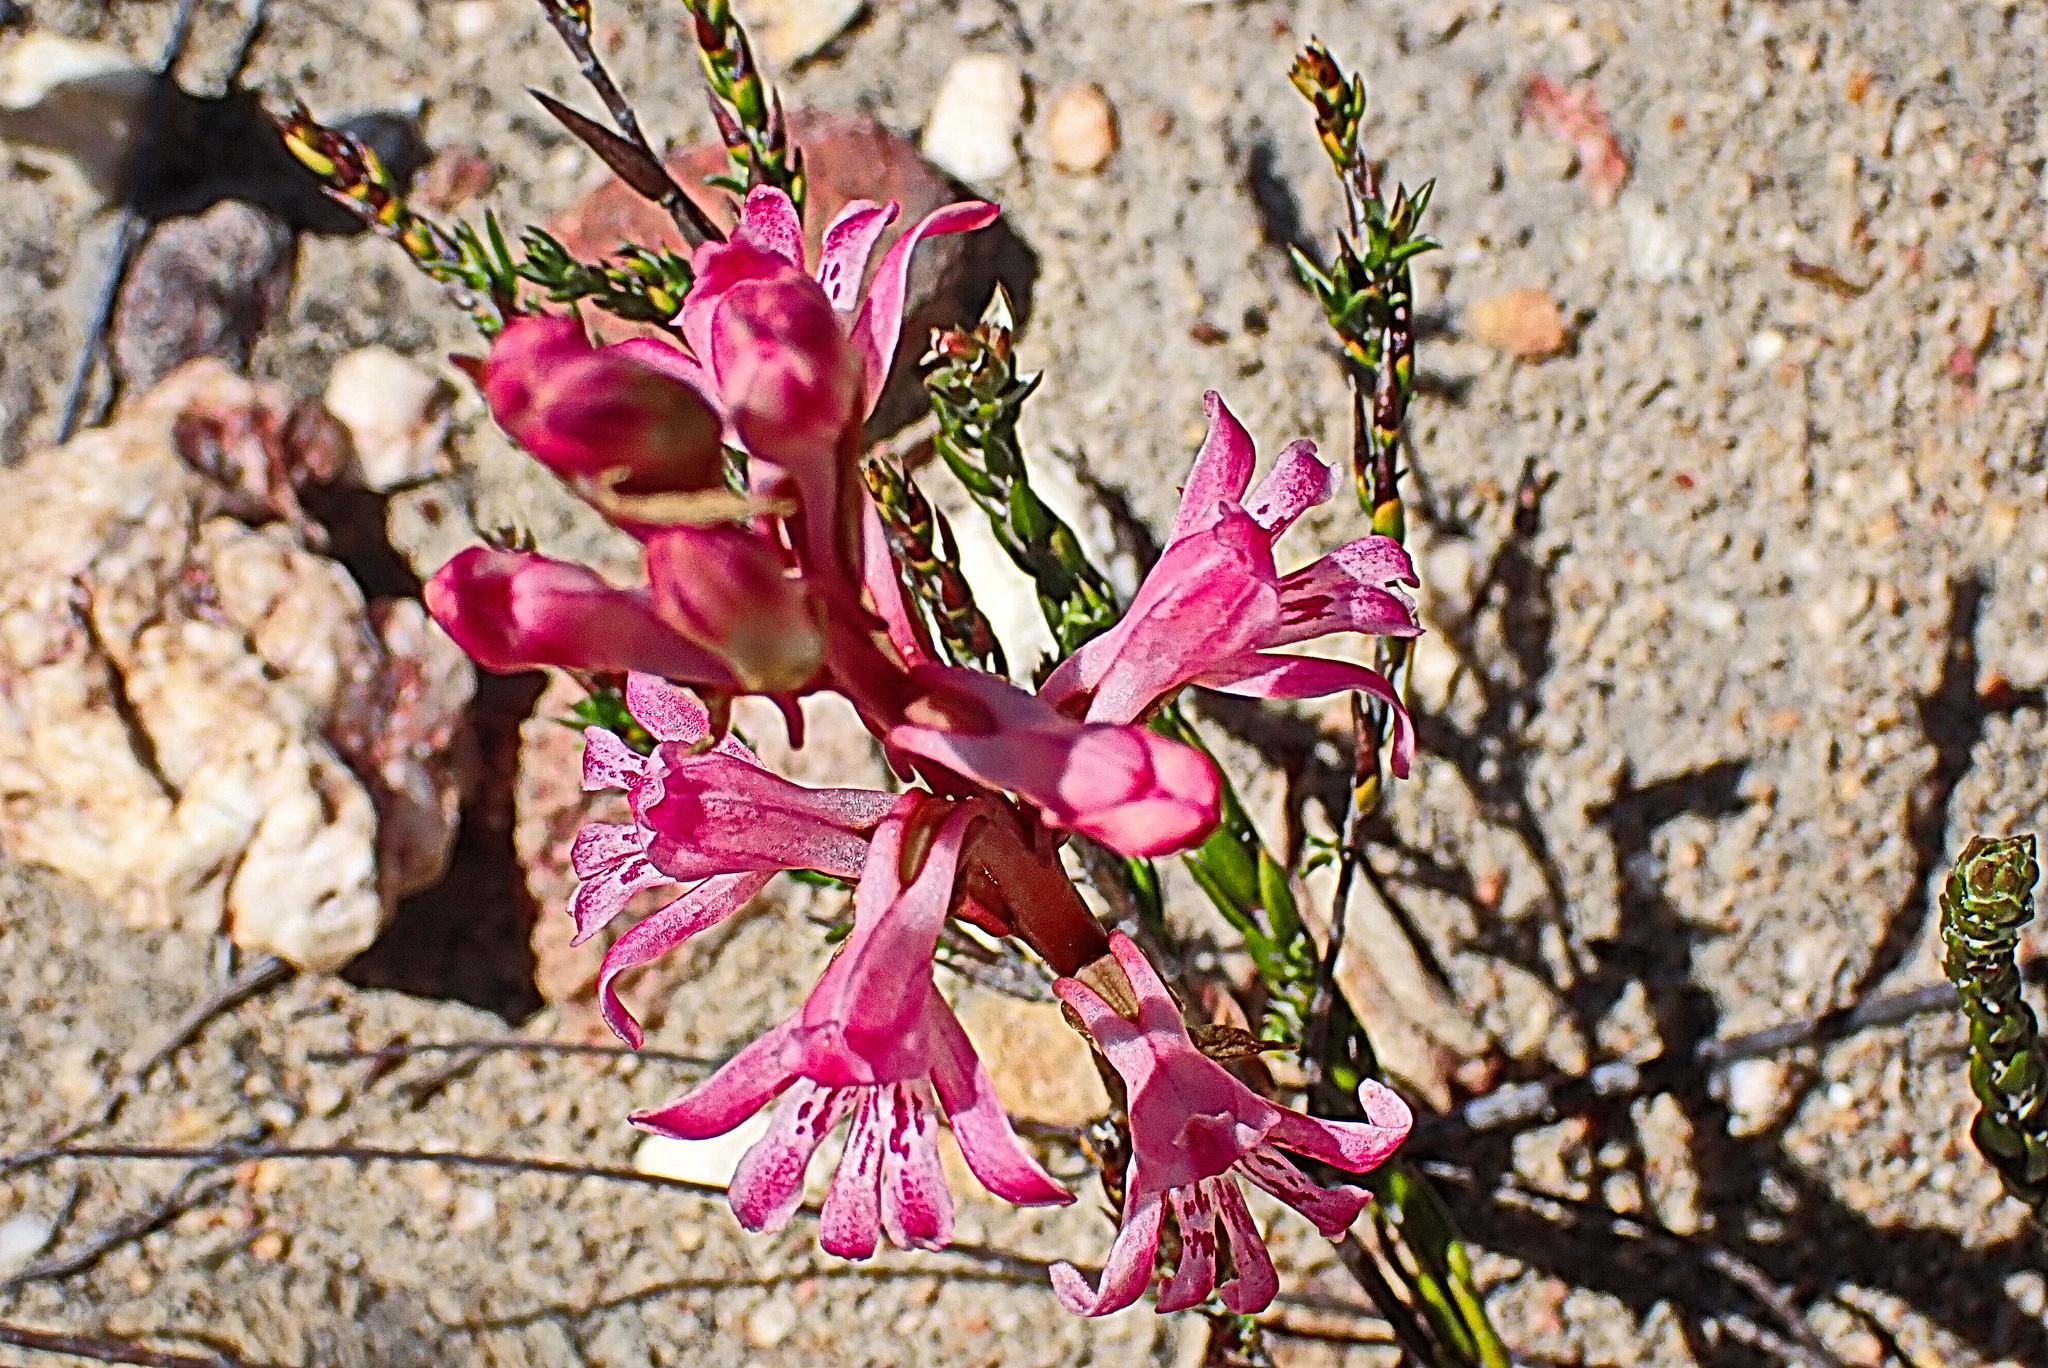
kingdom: Plantae
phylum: Tracheophyta
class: Liliopsida
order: Asparagales
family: Orchidaceae
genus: Satyrium
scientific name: Satyrium erectum
